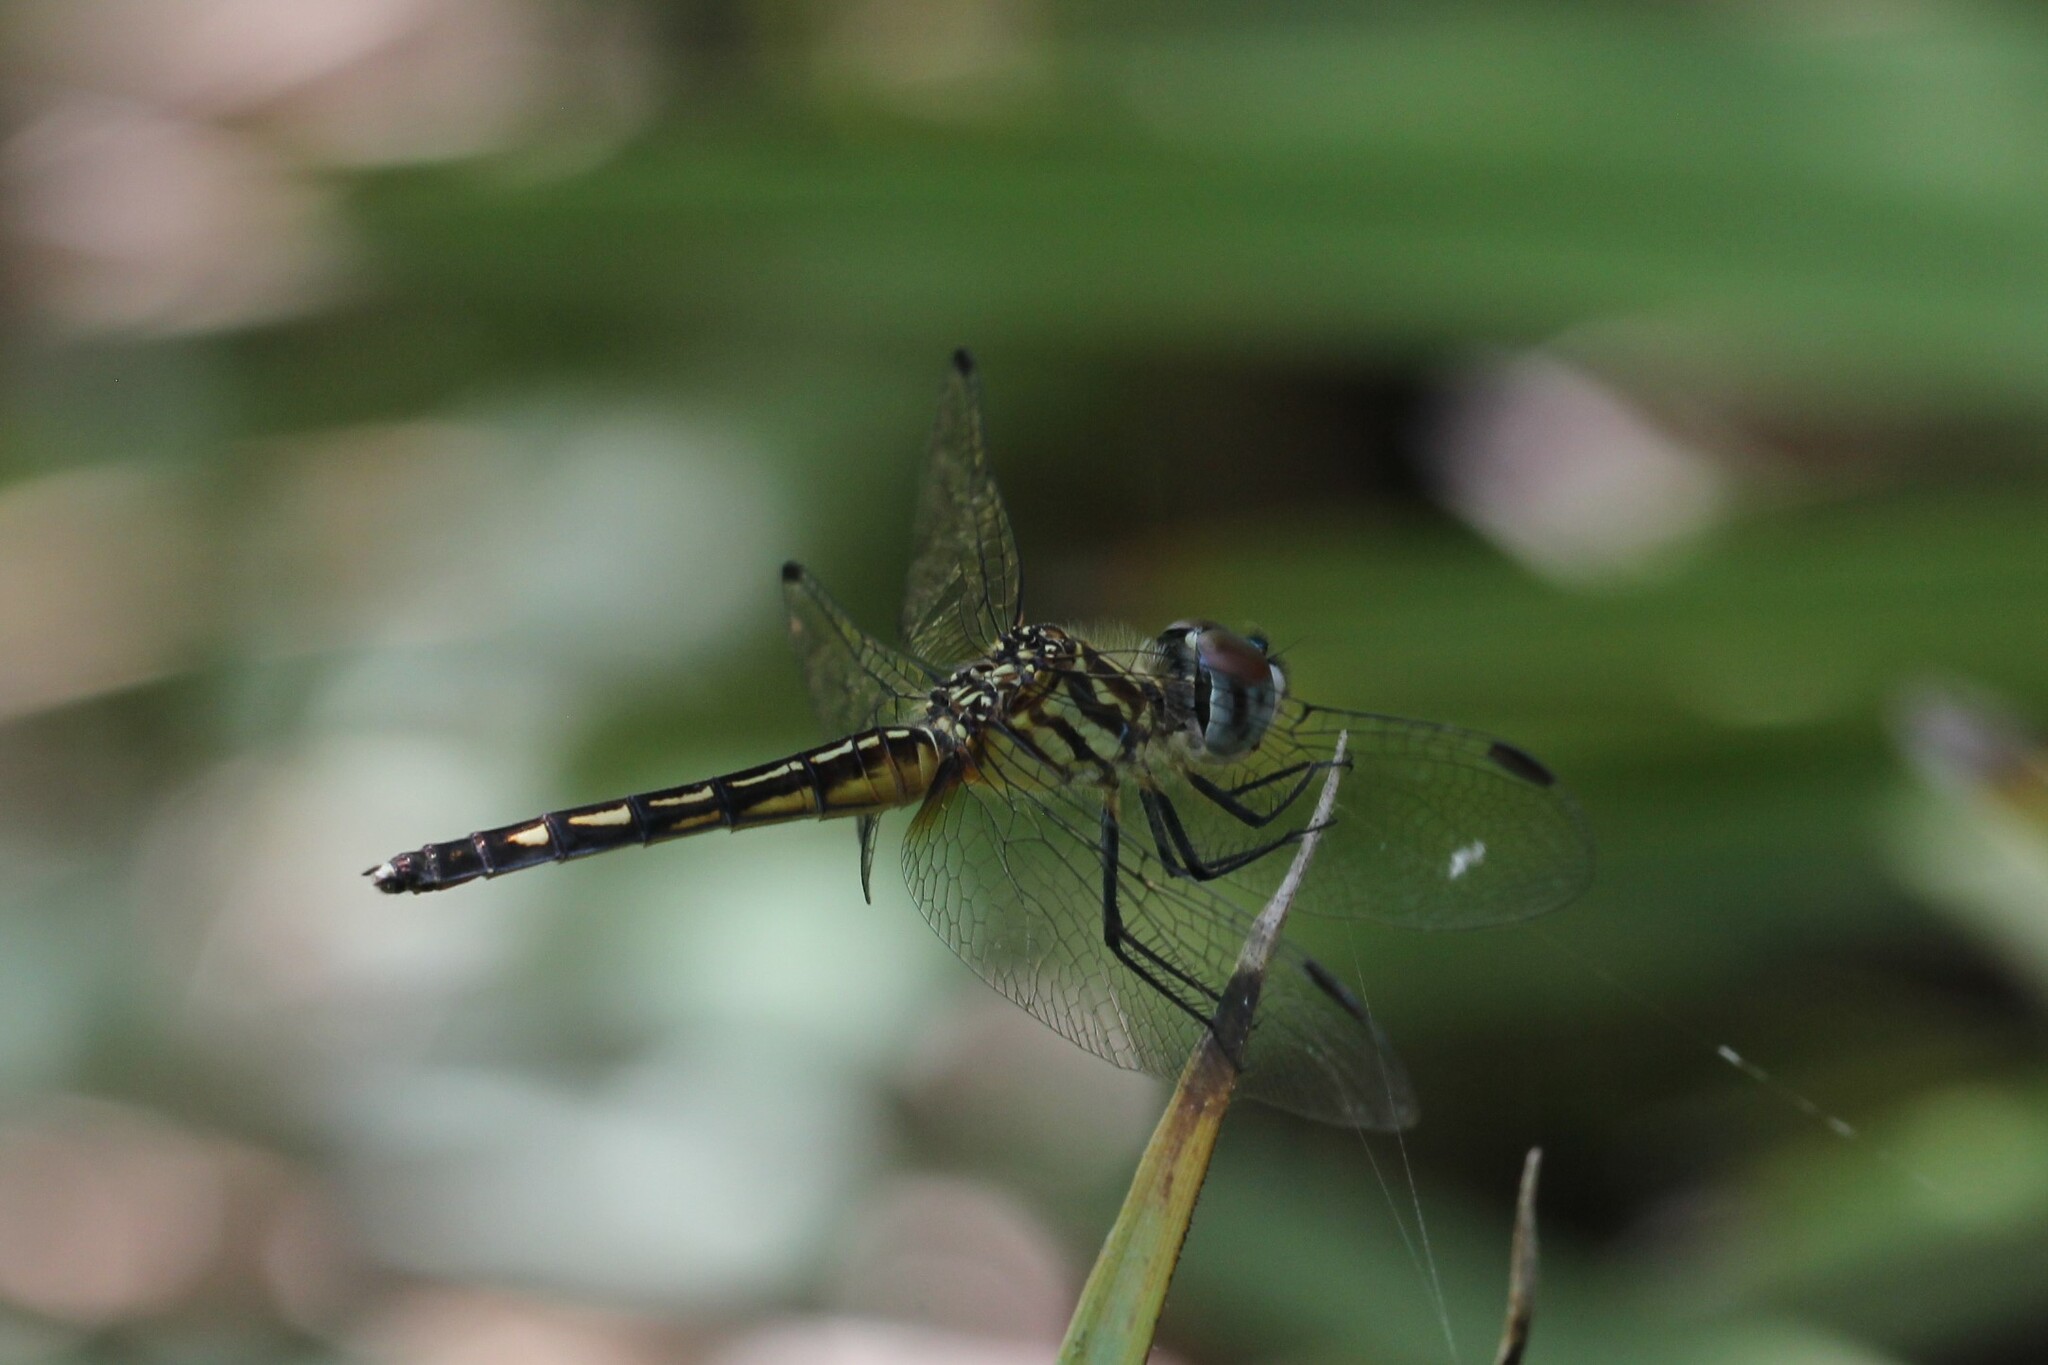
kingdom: Animalia
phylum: Arthropoda
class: Insecta
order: Odonata
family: Libellulidae
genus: Pachydiplax
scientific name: Pachydiplax longipennis
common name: Blue dasher
